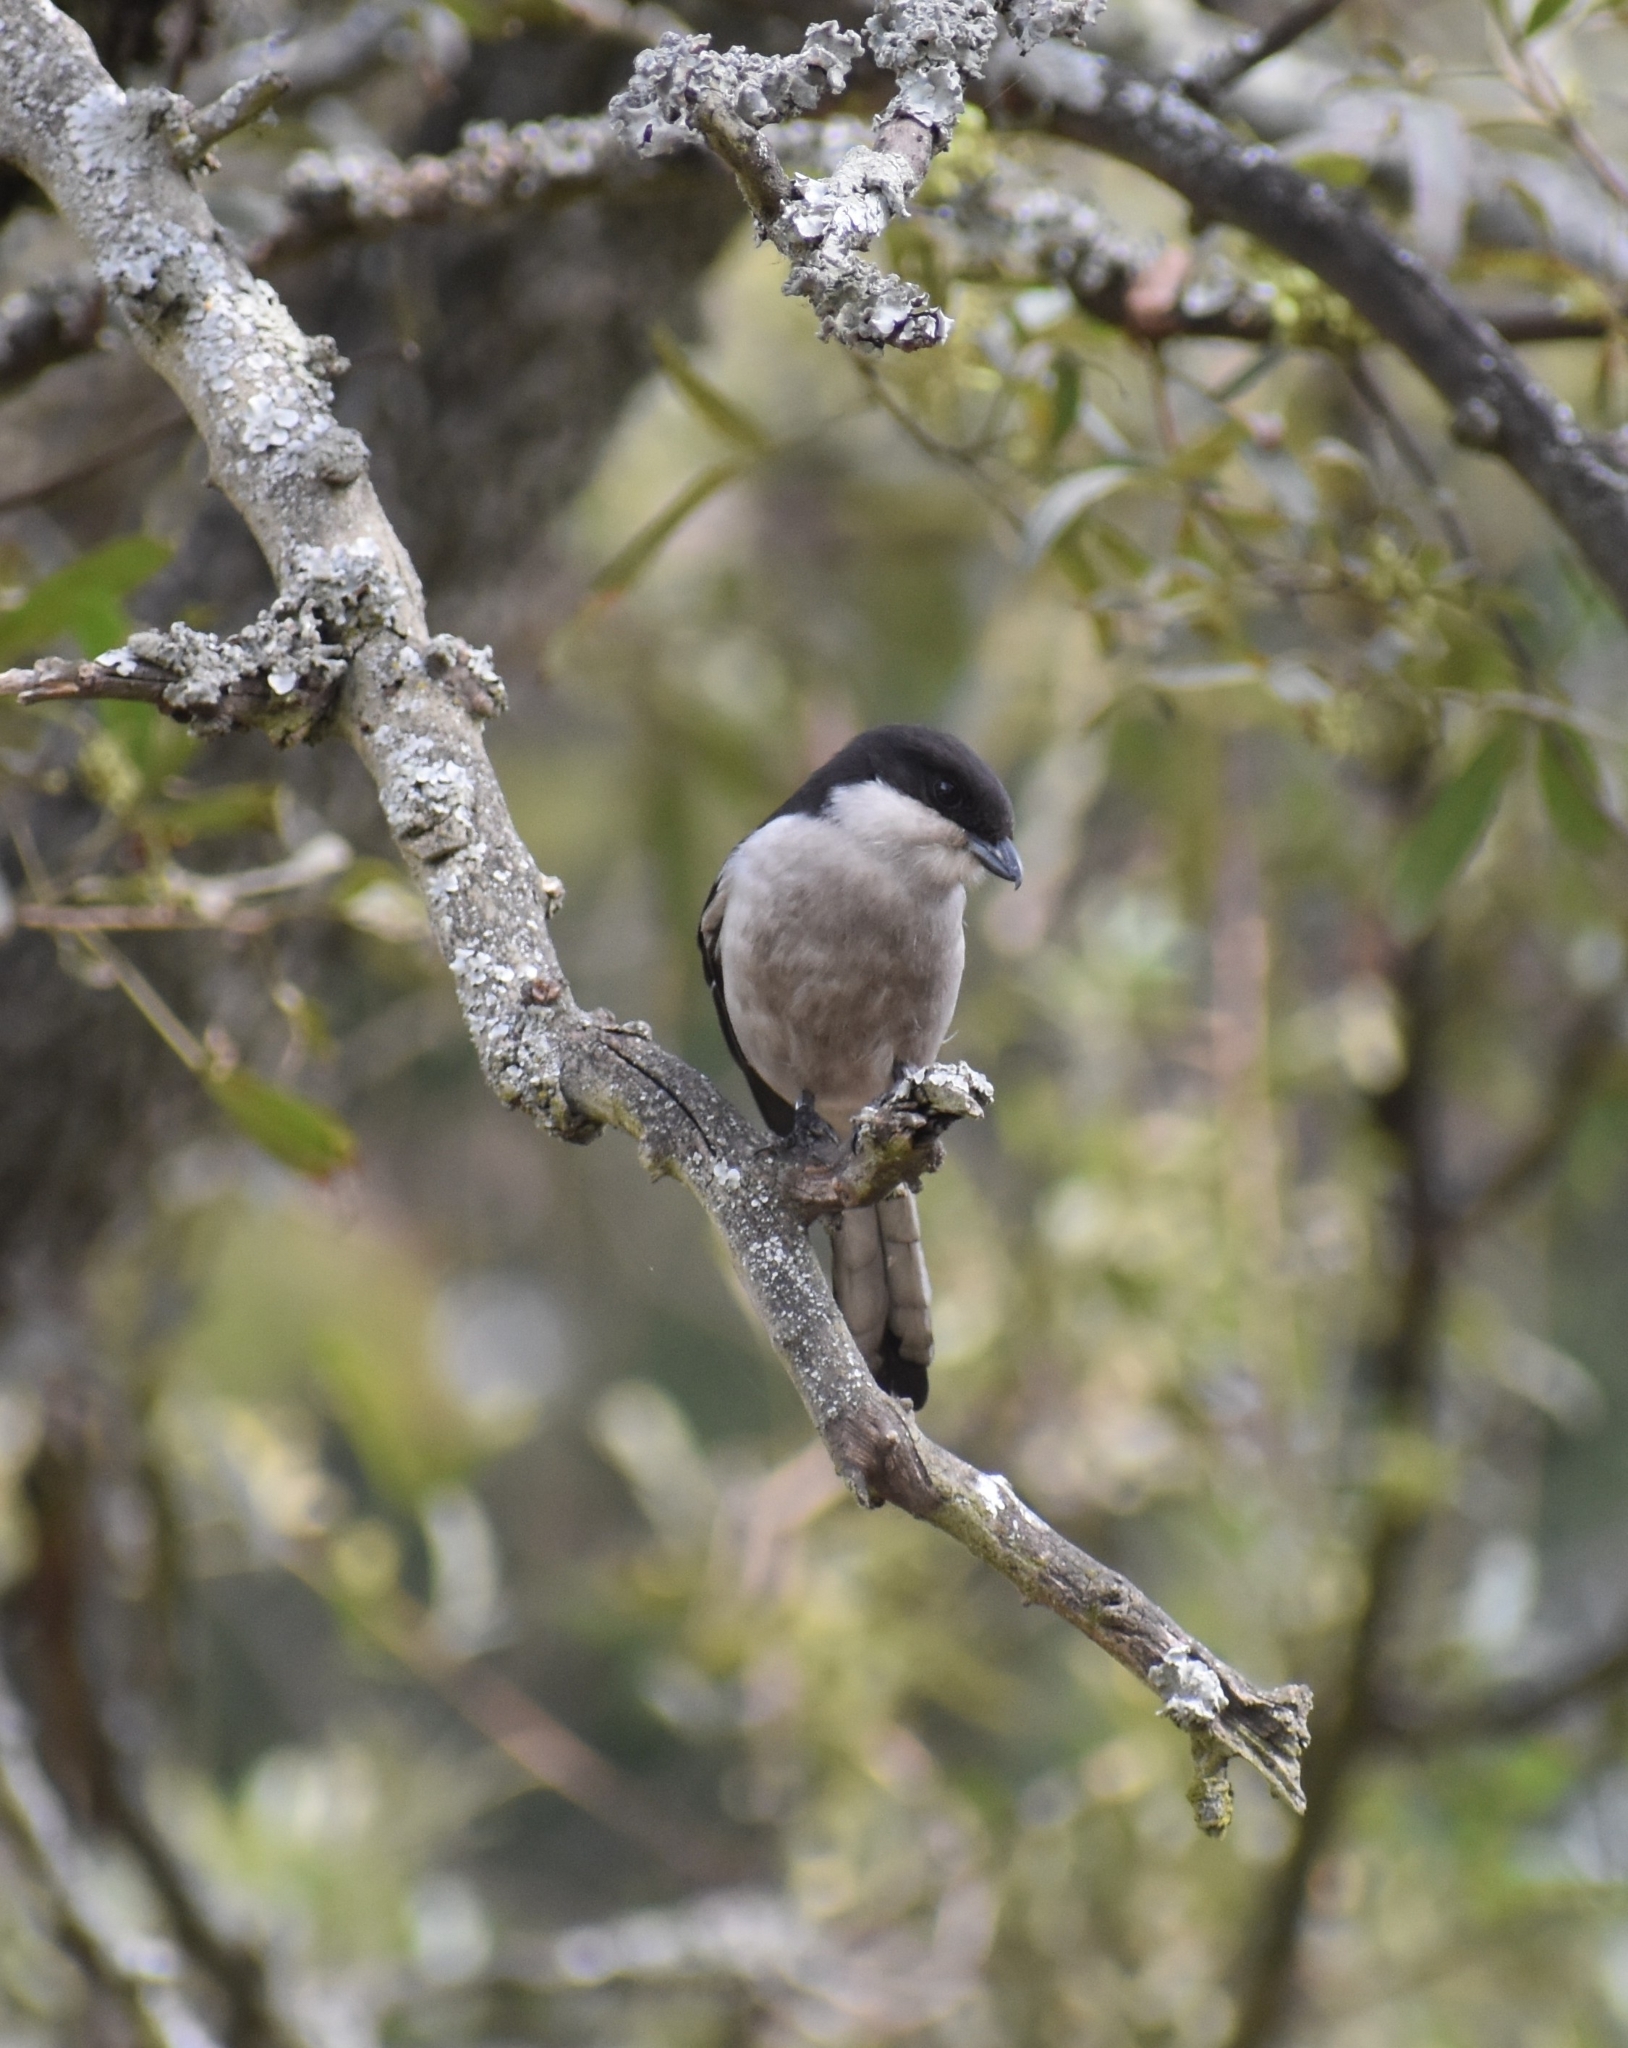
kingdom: Animalia
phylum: Chordata
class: Aves
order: Passeriformes
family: Laniidae
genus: Lanius
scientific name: Lanius collaris
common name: Southern fiscal
